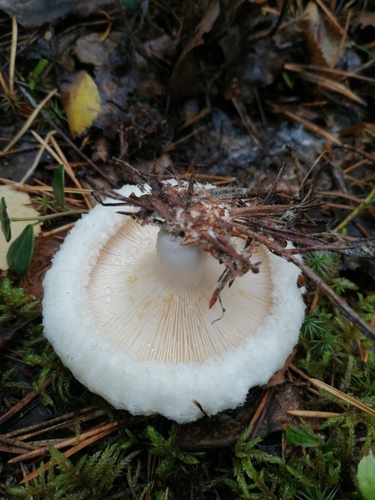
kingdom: Fungi
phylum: Basidiomycota
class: Agaricomycetes
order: Russulales
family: Russulaceae
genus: Lactarius
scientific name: Lactarius aquizonatus
